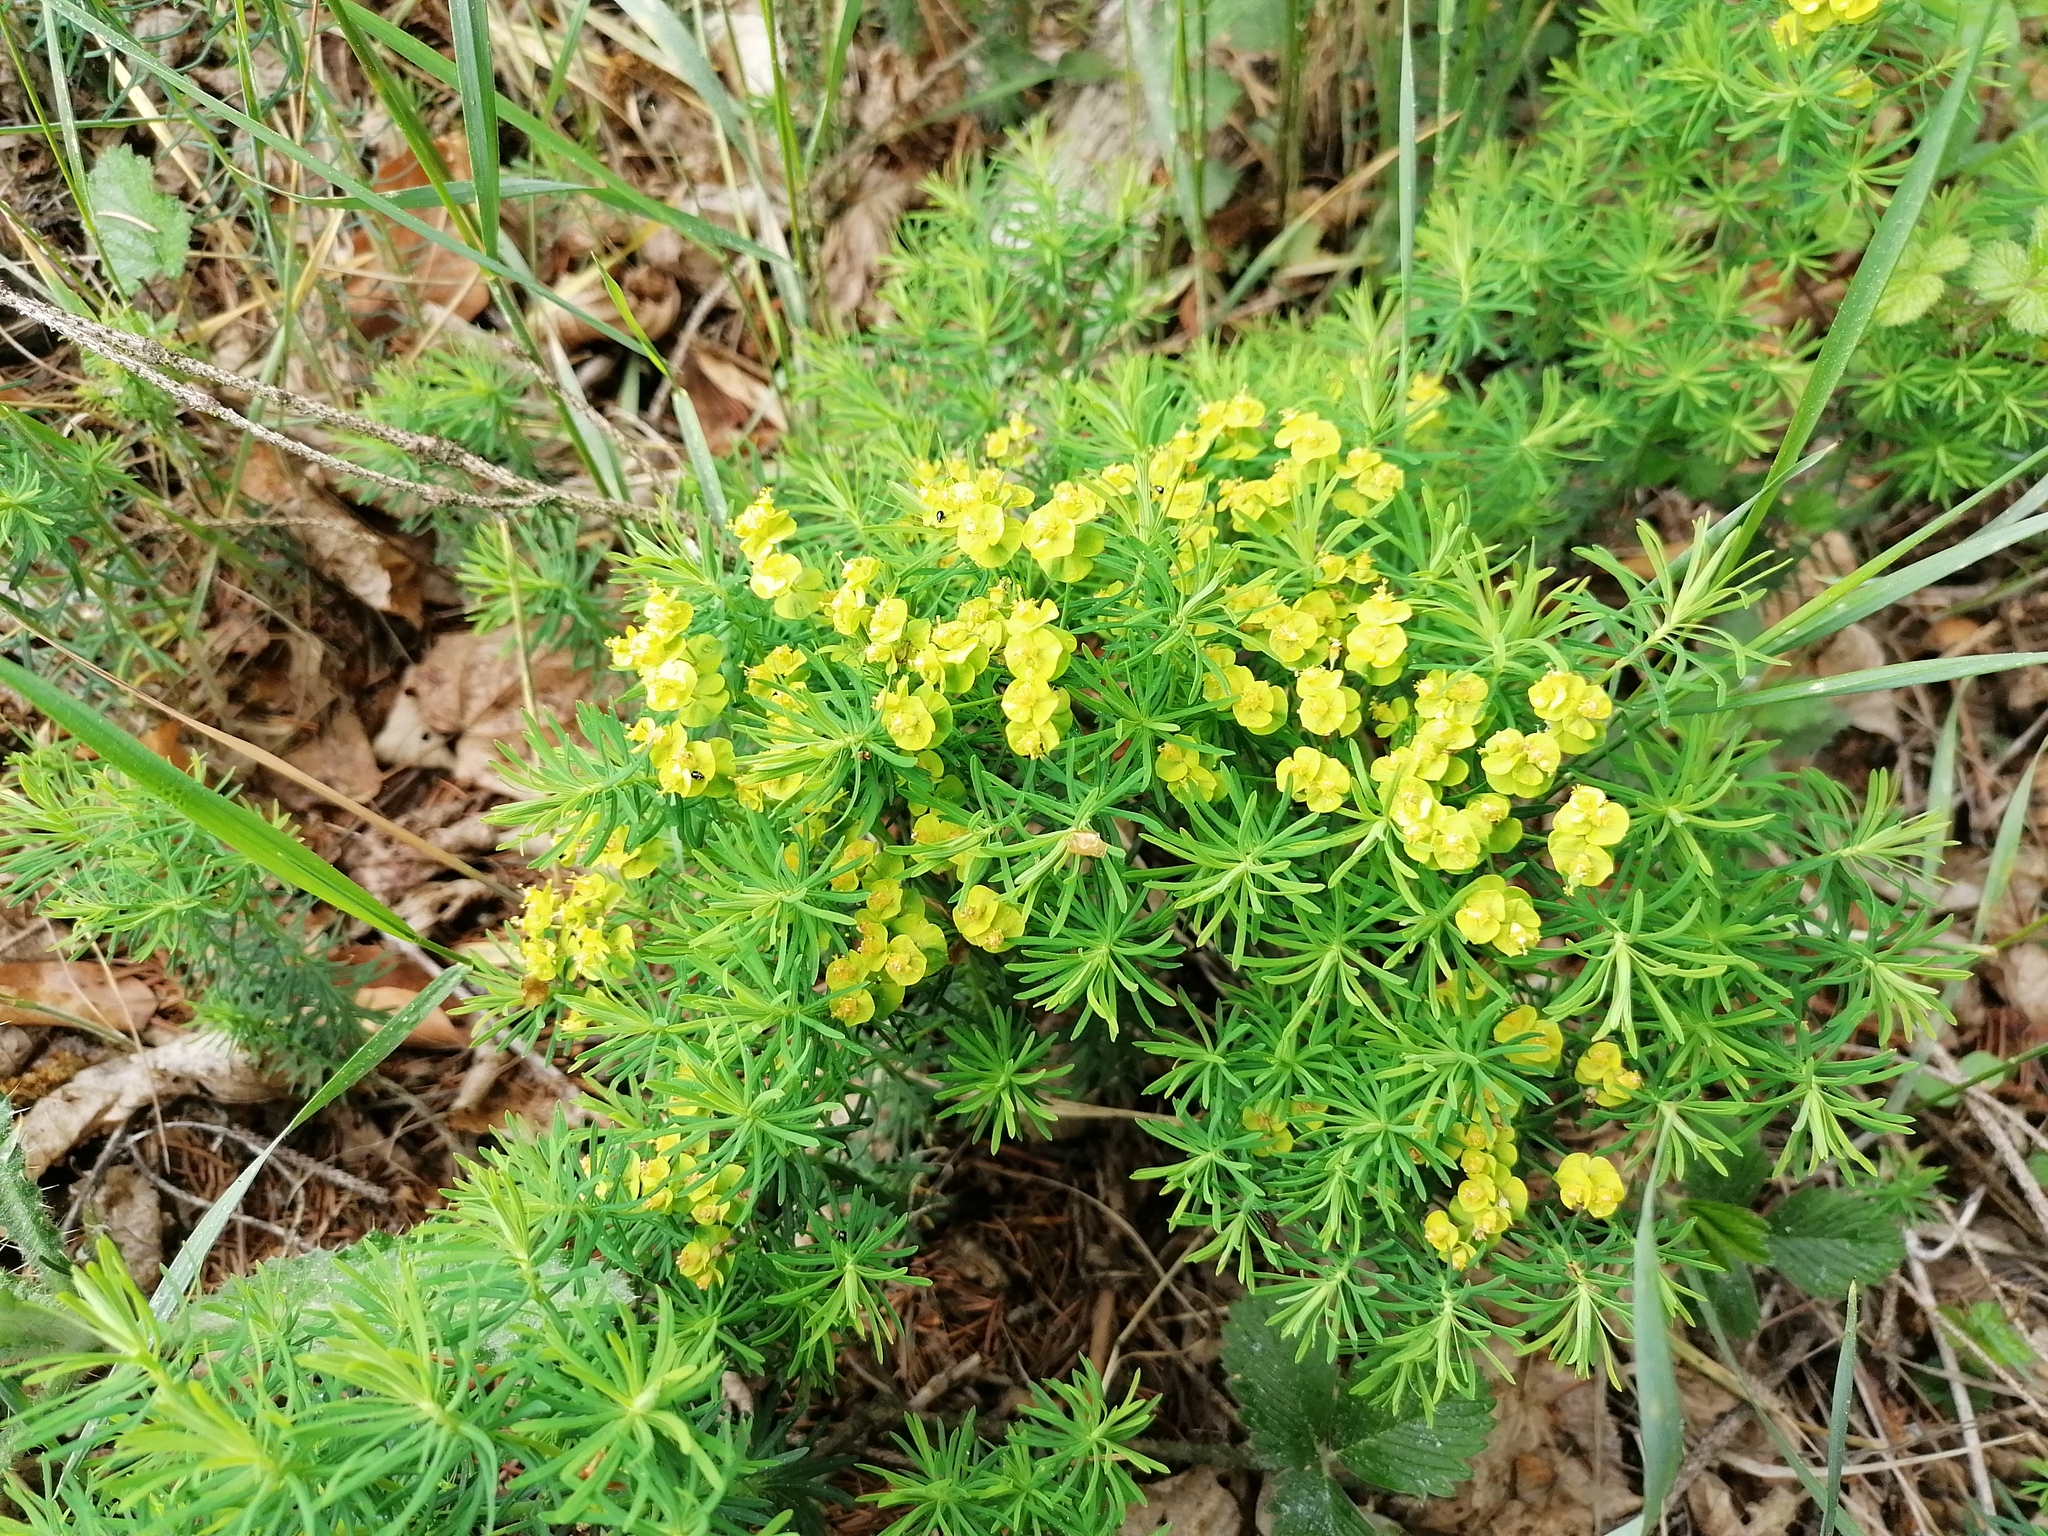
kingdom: Plantae
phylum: Tracheophyta
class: Magnoliopsida
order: Malpighiales
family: Euphorbiaceae
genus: Euphorbia
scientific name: Euphorbia cyparissias
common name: Cypress spurge
